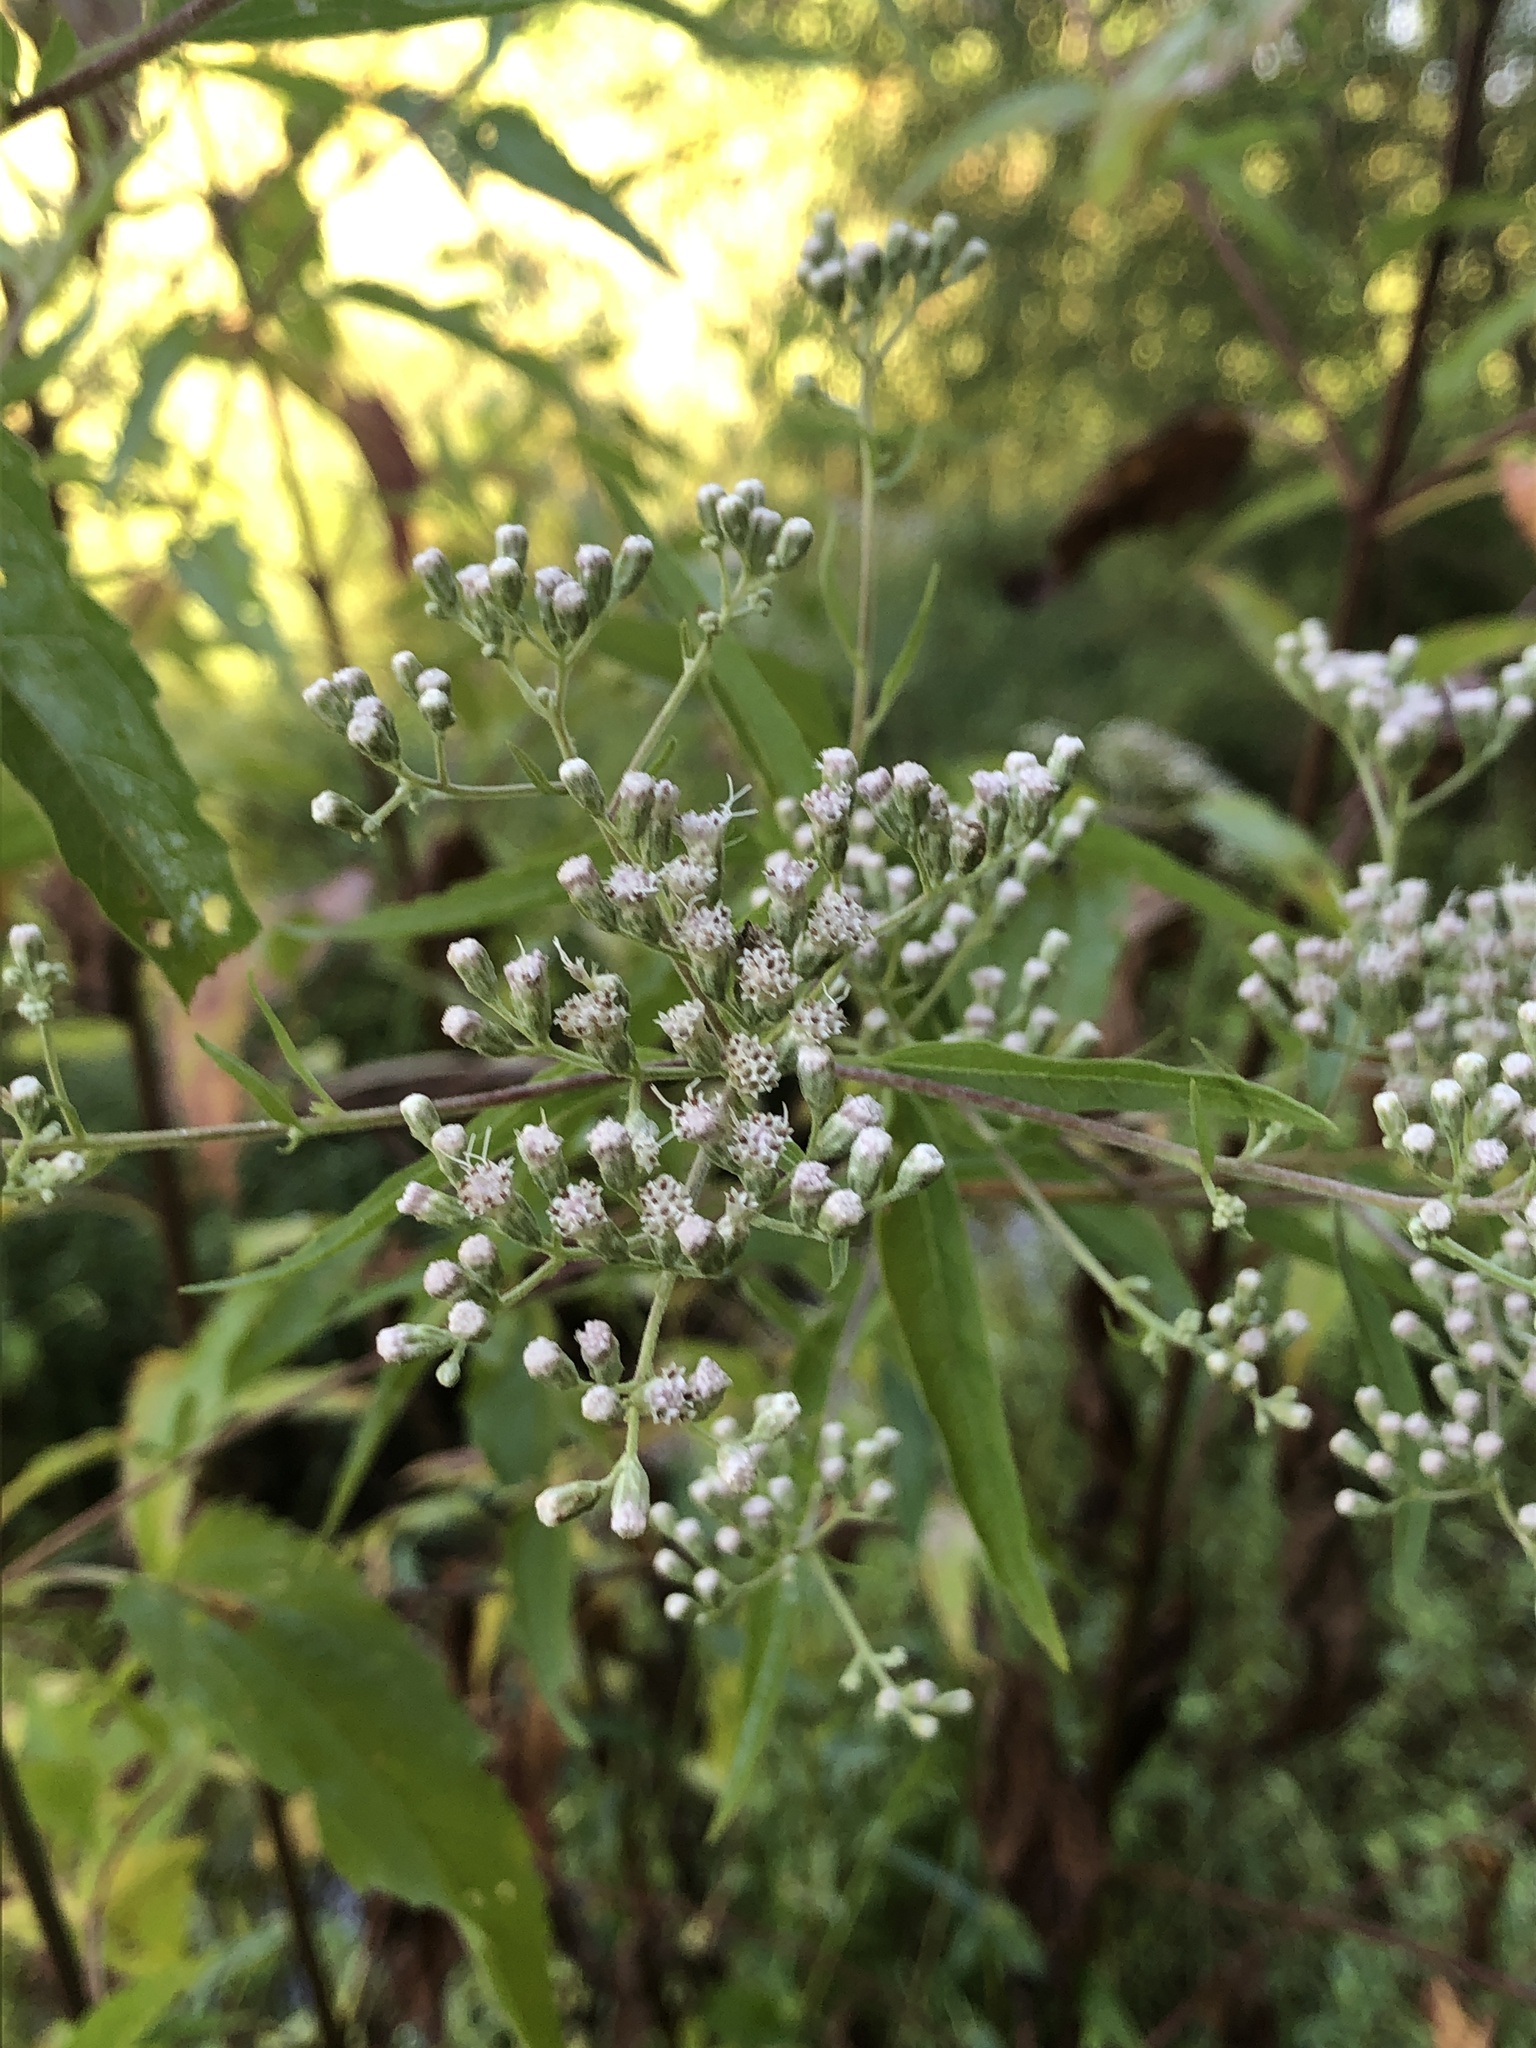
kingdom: Plantae
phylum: Tracheophyta
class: Magnoliopsida
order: Asterales
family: Asteraceae
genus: Eupatorium
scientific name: Eupatorium serotinum
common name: Late boneset
